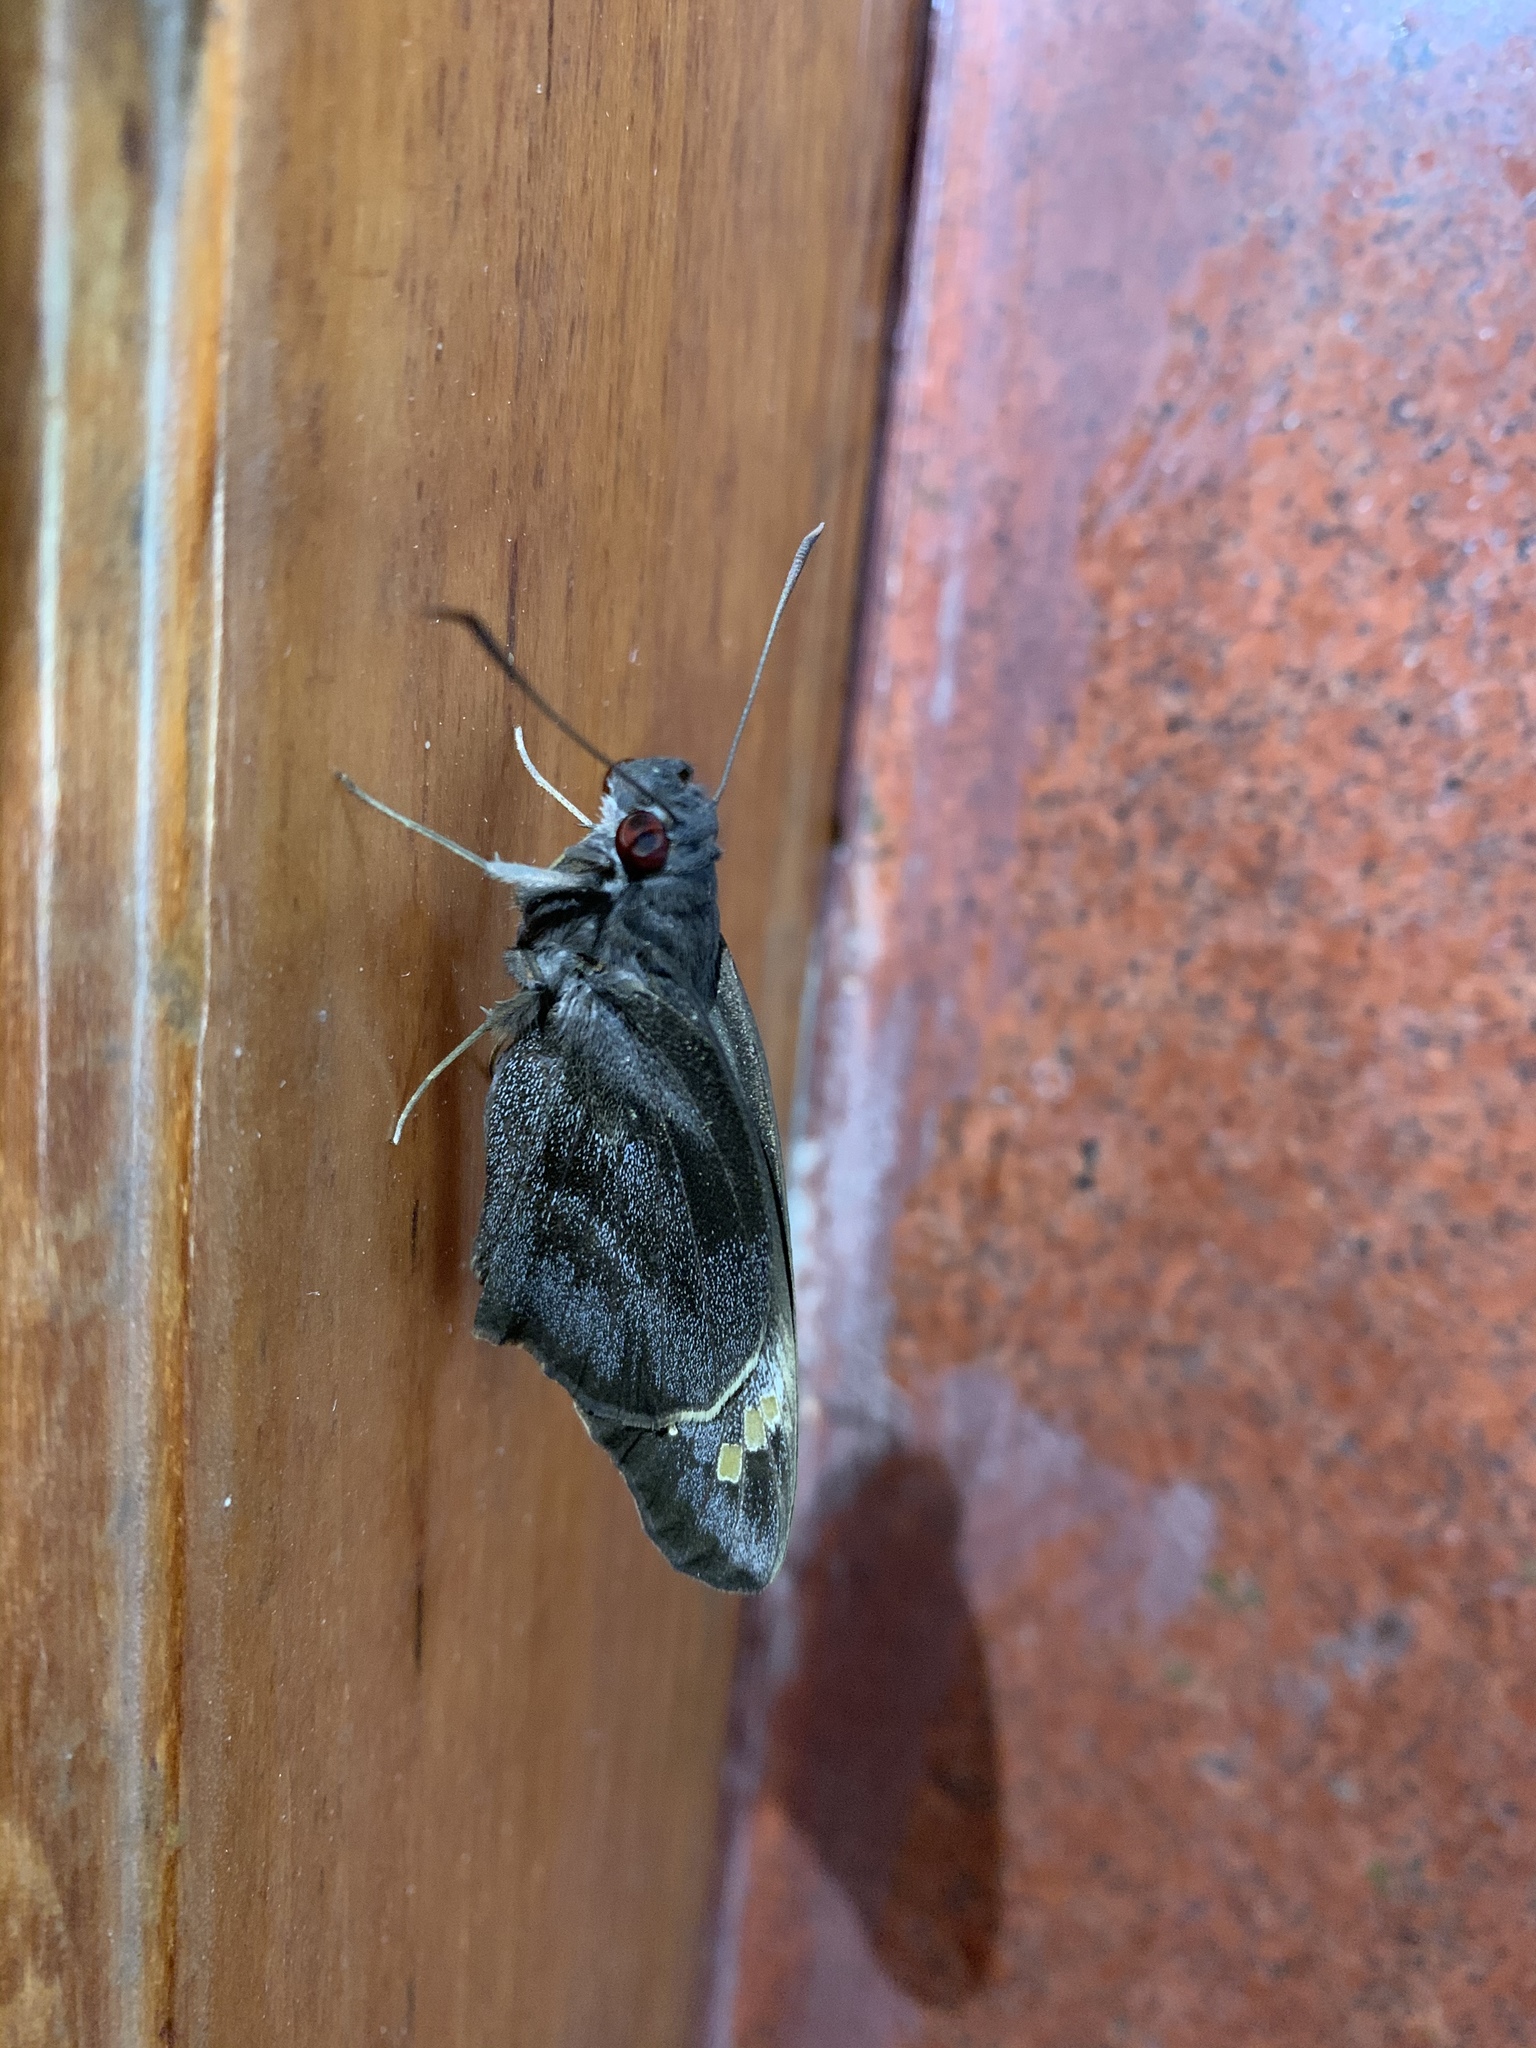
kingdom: Animalia
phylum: Arthropoda
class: Insecta
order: Lepidoptera
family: Hesperiidae
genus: Gangara
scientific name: Gangara thyrsis
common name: Giant redeye
